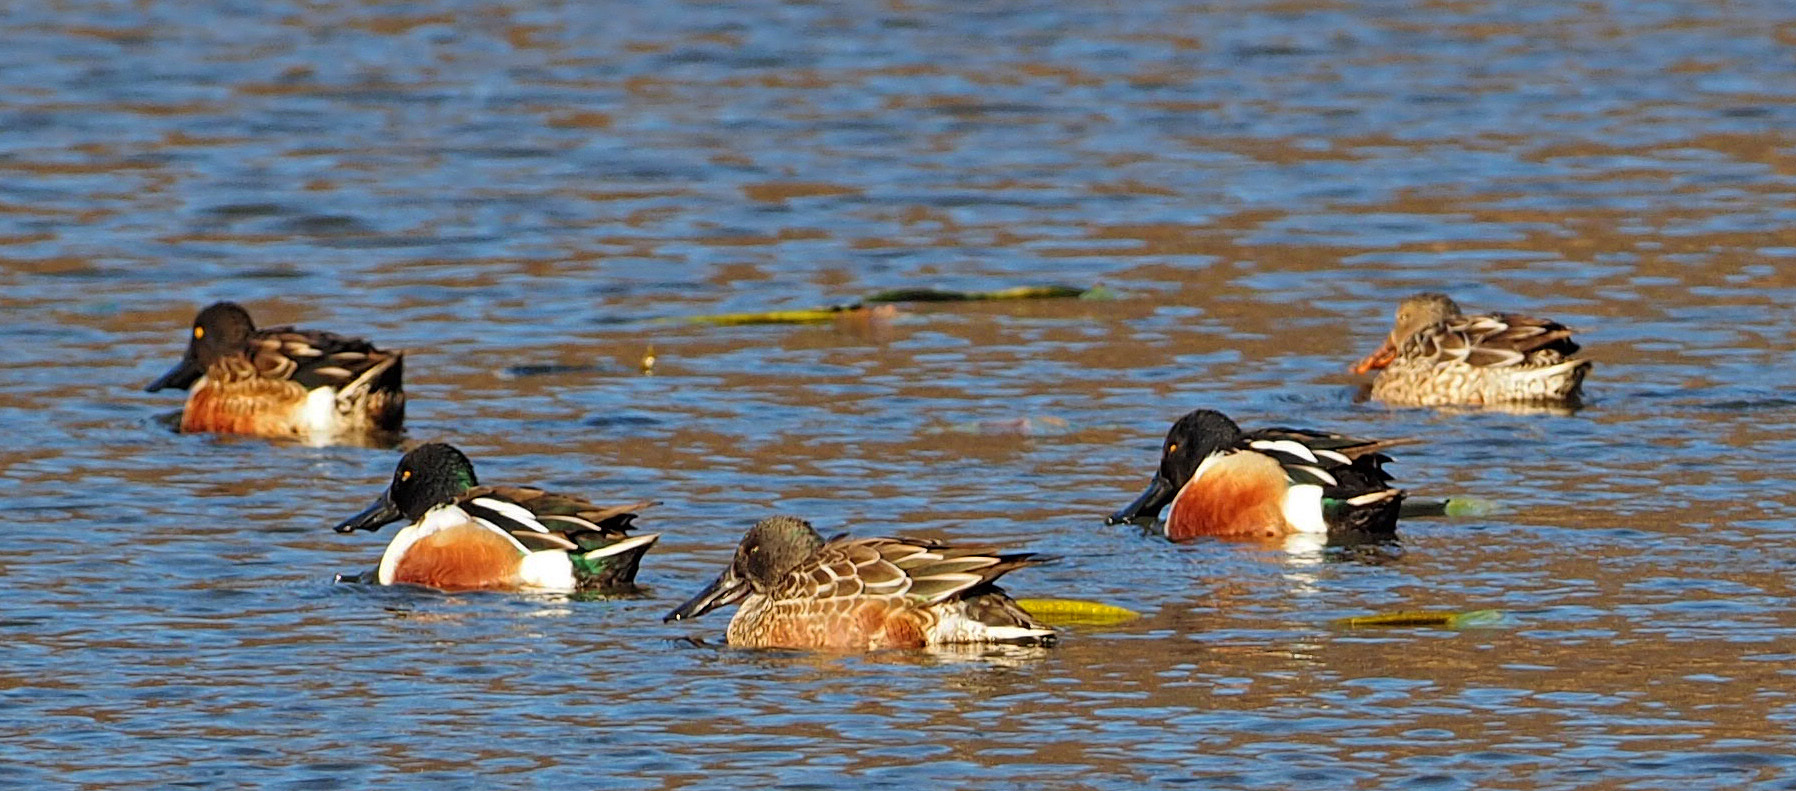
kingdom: Animalia
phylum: Chordata
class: Aves
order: Anseriformes
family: Anatidae
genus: Spatula
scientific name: Spatula clypeata
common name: Northern shoveler
